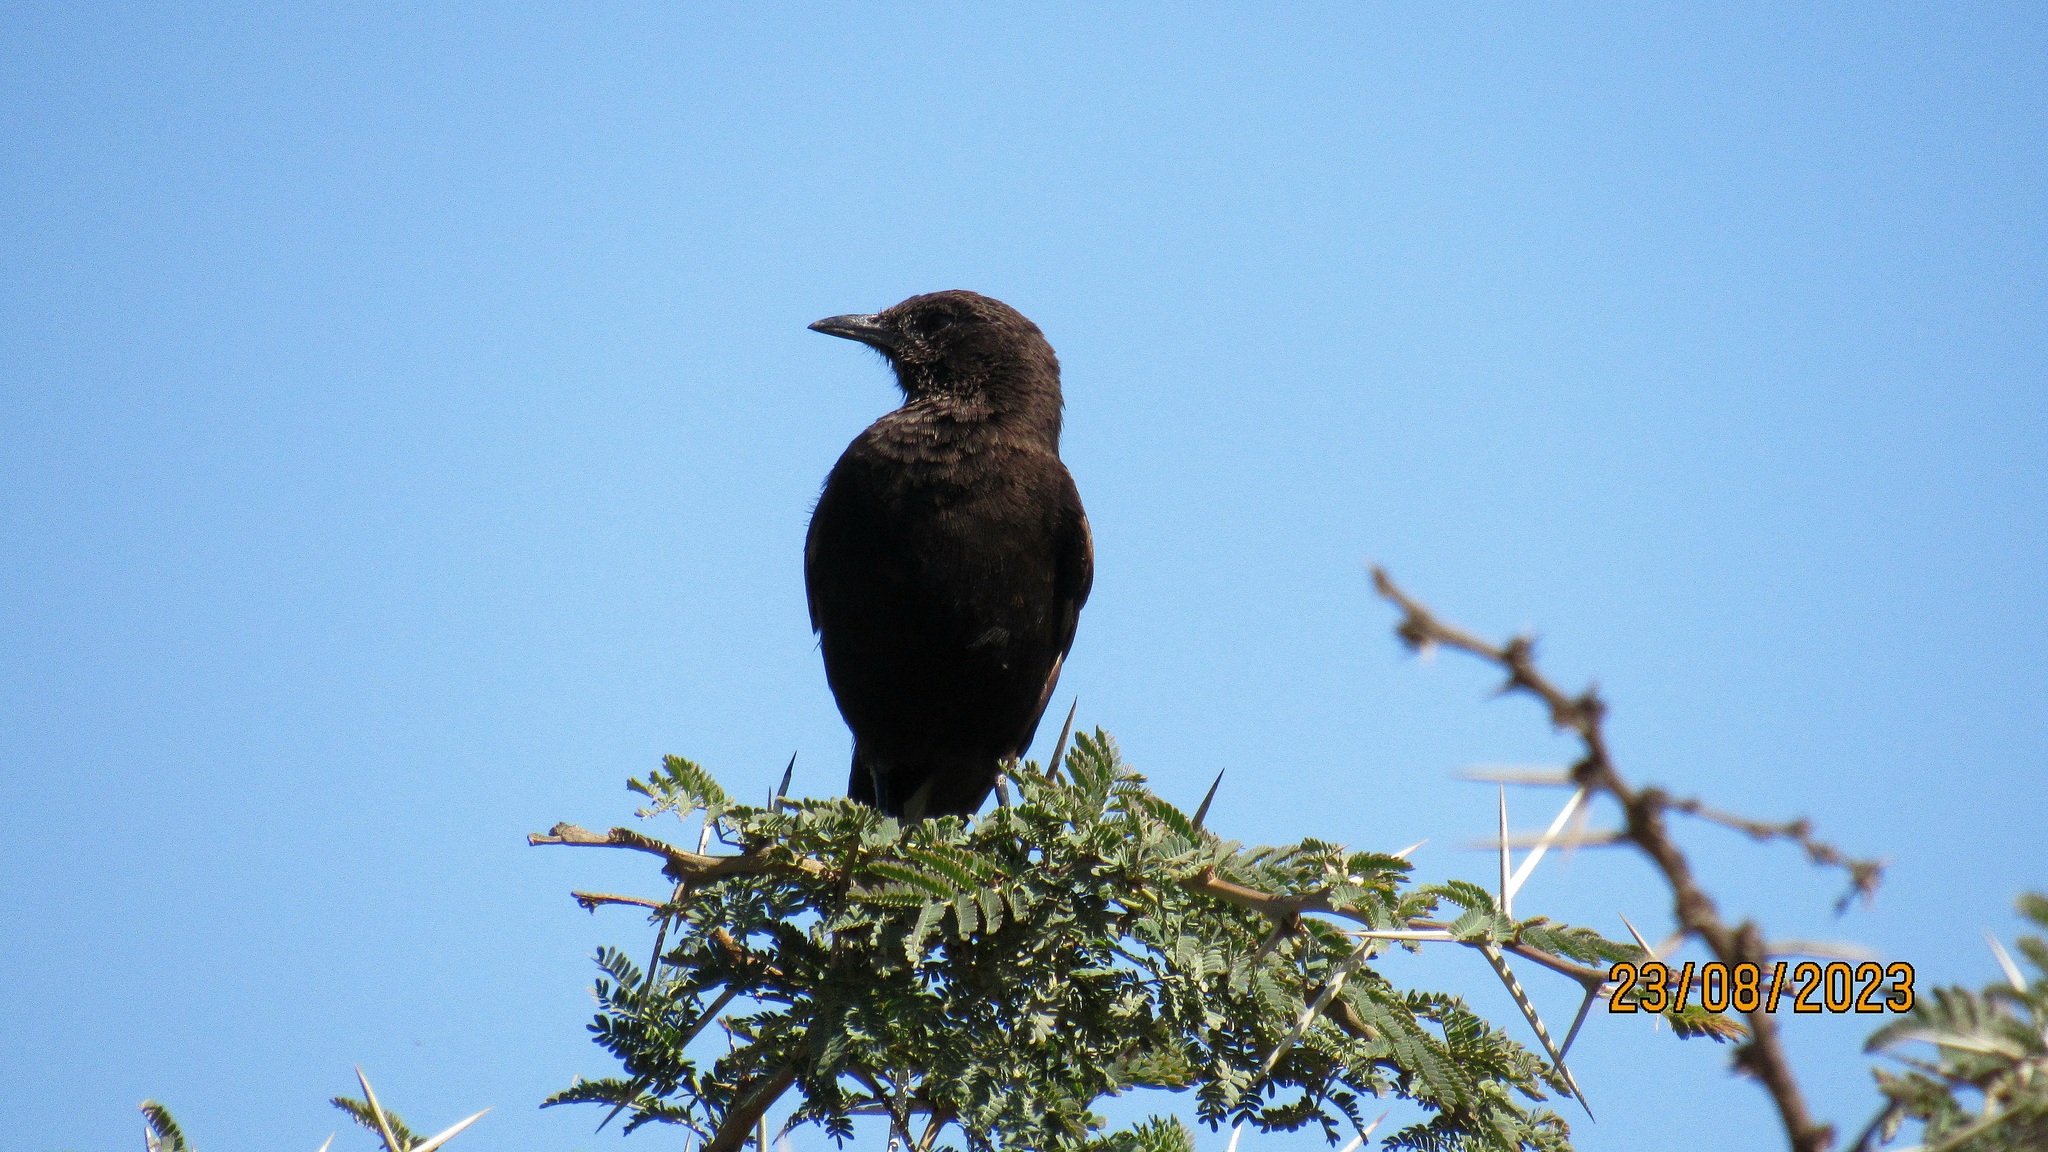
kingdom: Animalia
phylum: Chordata
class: Aves
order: Passeriformes
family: Muscicapidae
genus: Myrmecocichla
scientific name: Myrmecocichla aethiops
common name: Anteater chat
